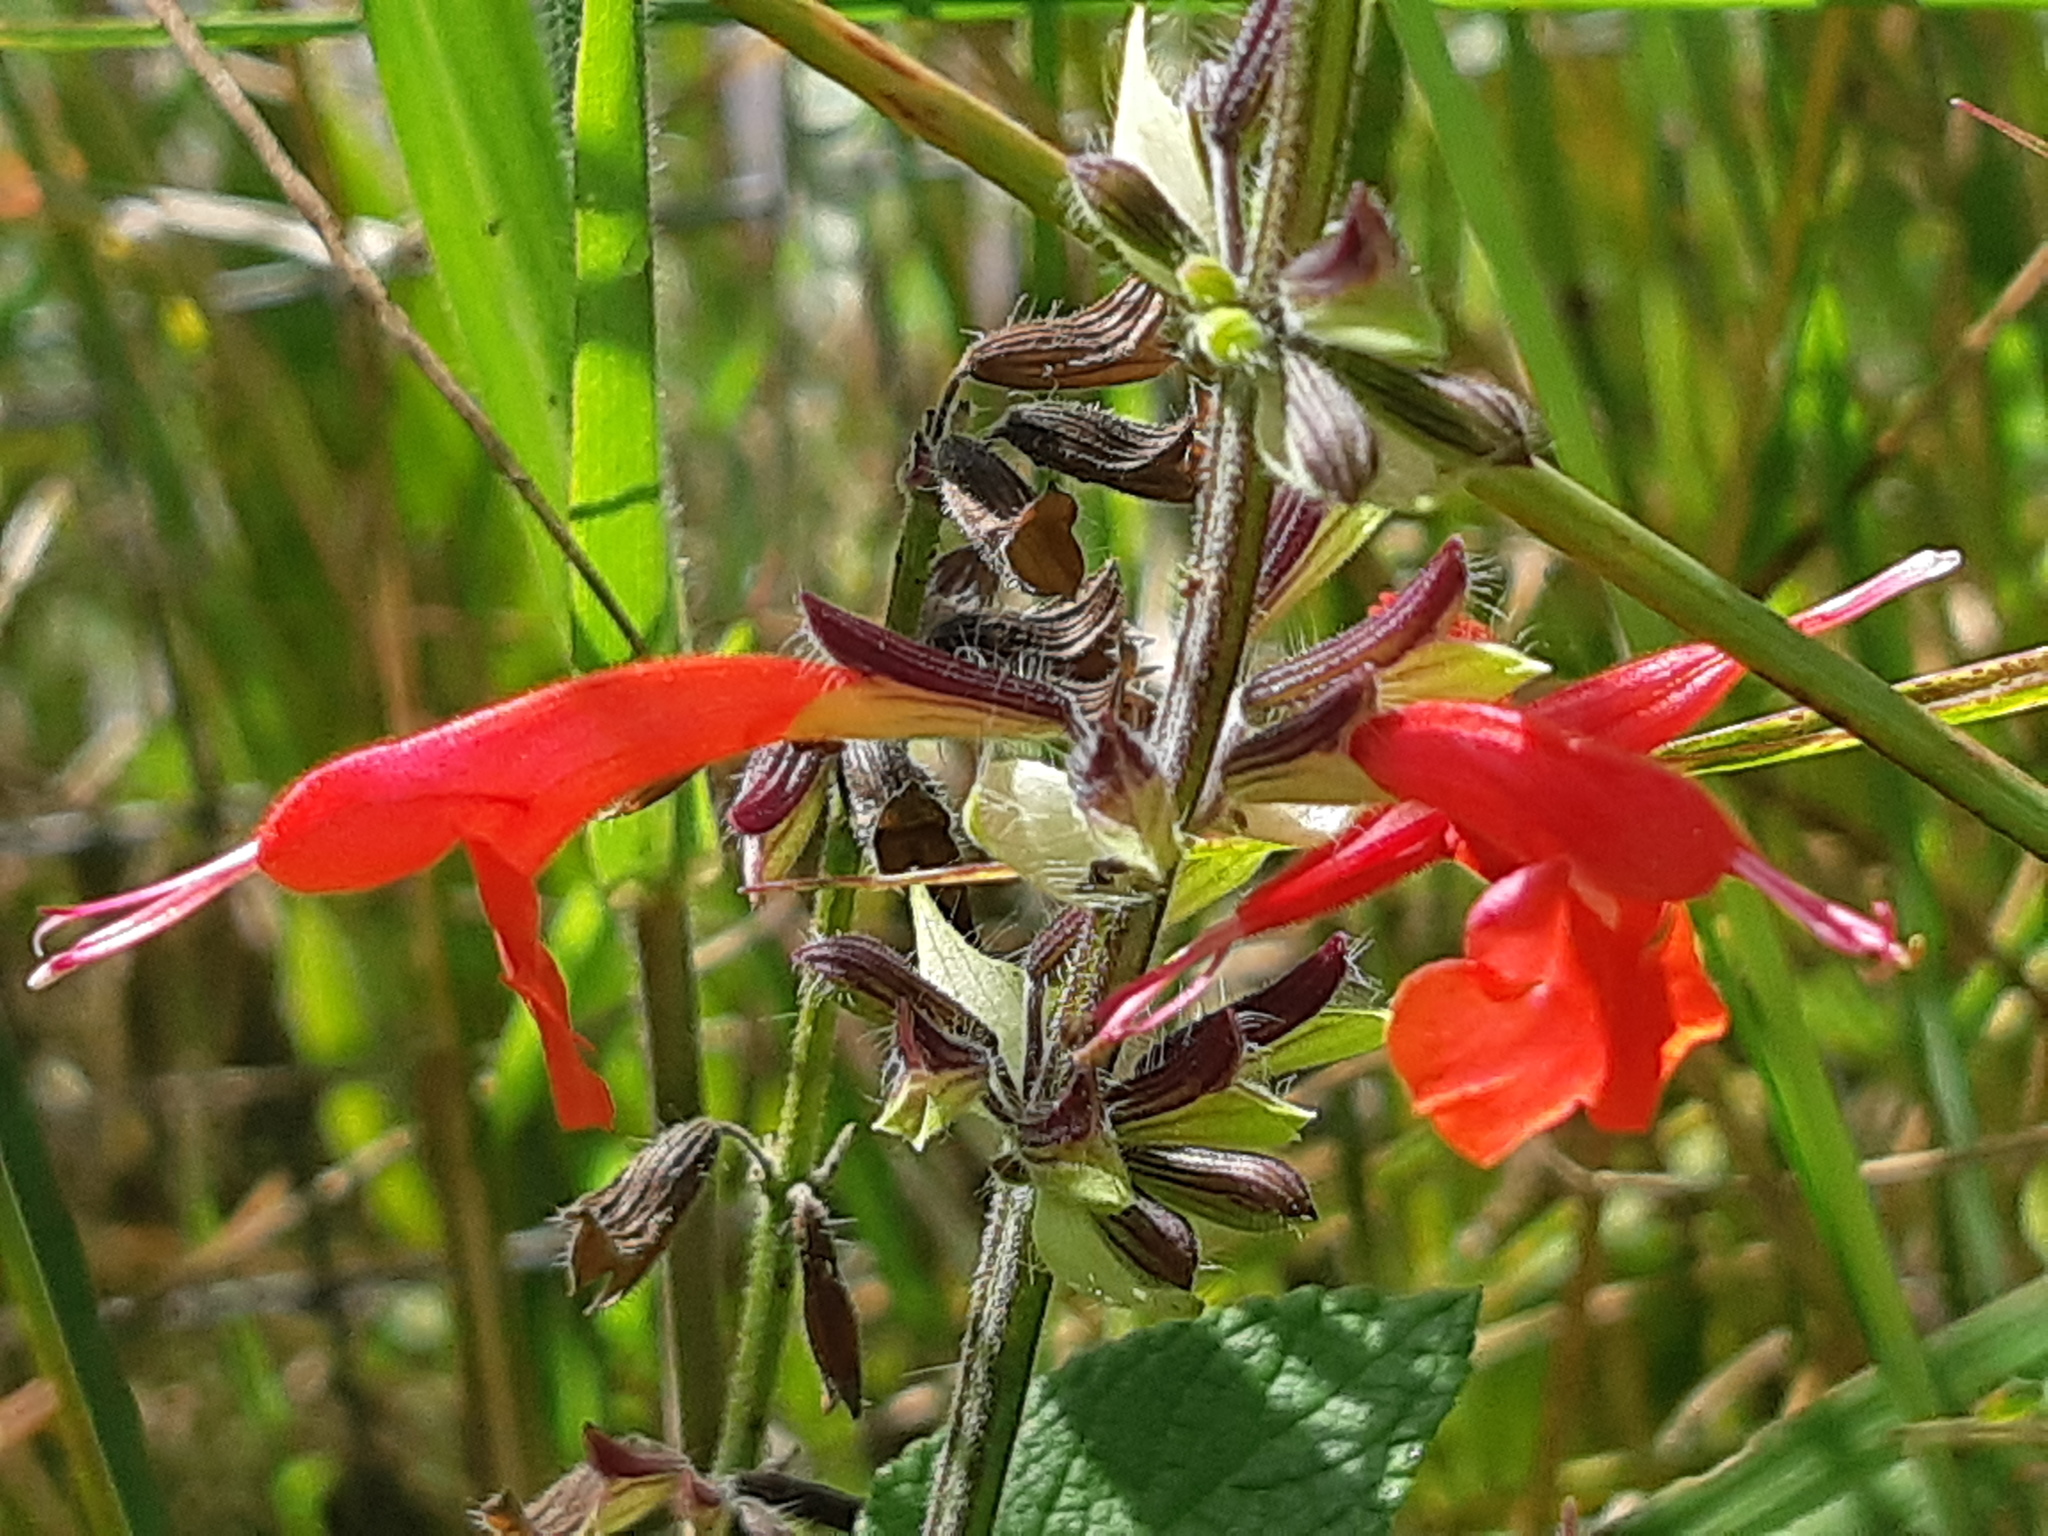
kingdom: Plantae
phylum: Tracheophyta
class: Magnoliopsida
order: Lamiales
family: Lamiaceae
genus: Salvia
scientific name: Salvia coccinea
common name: Blood sage
